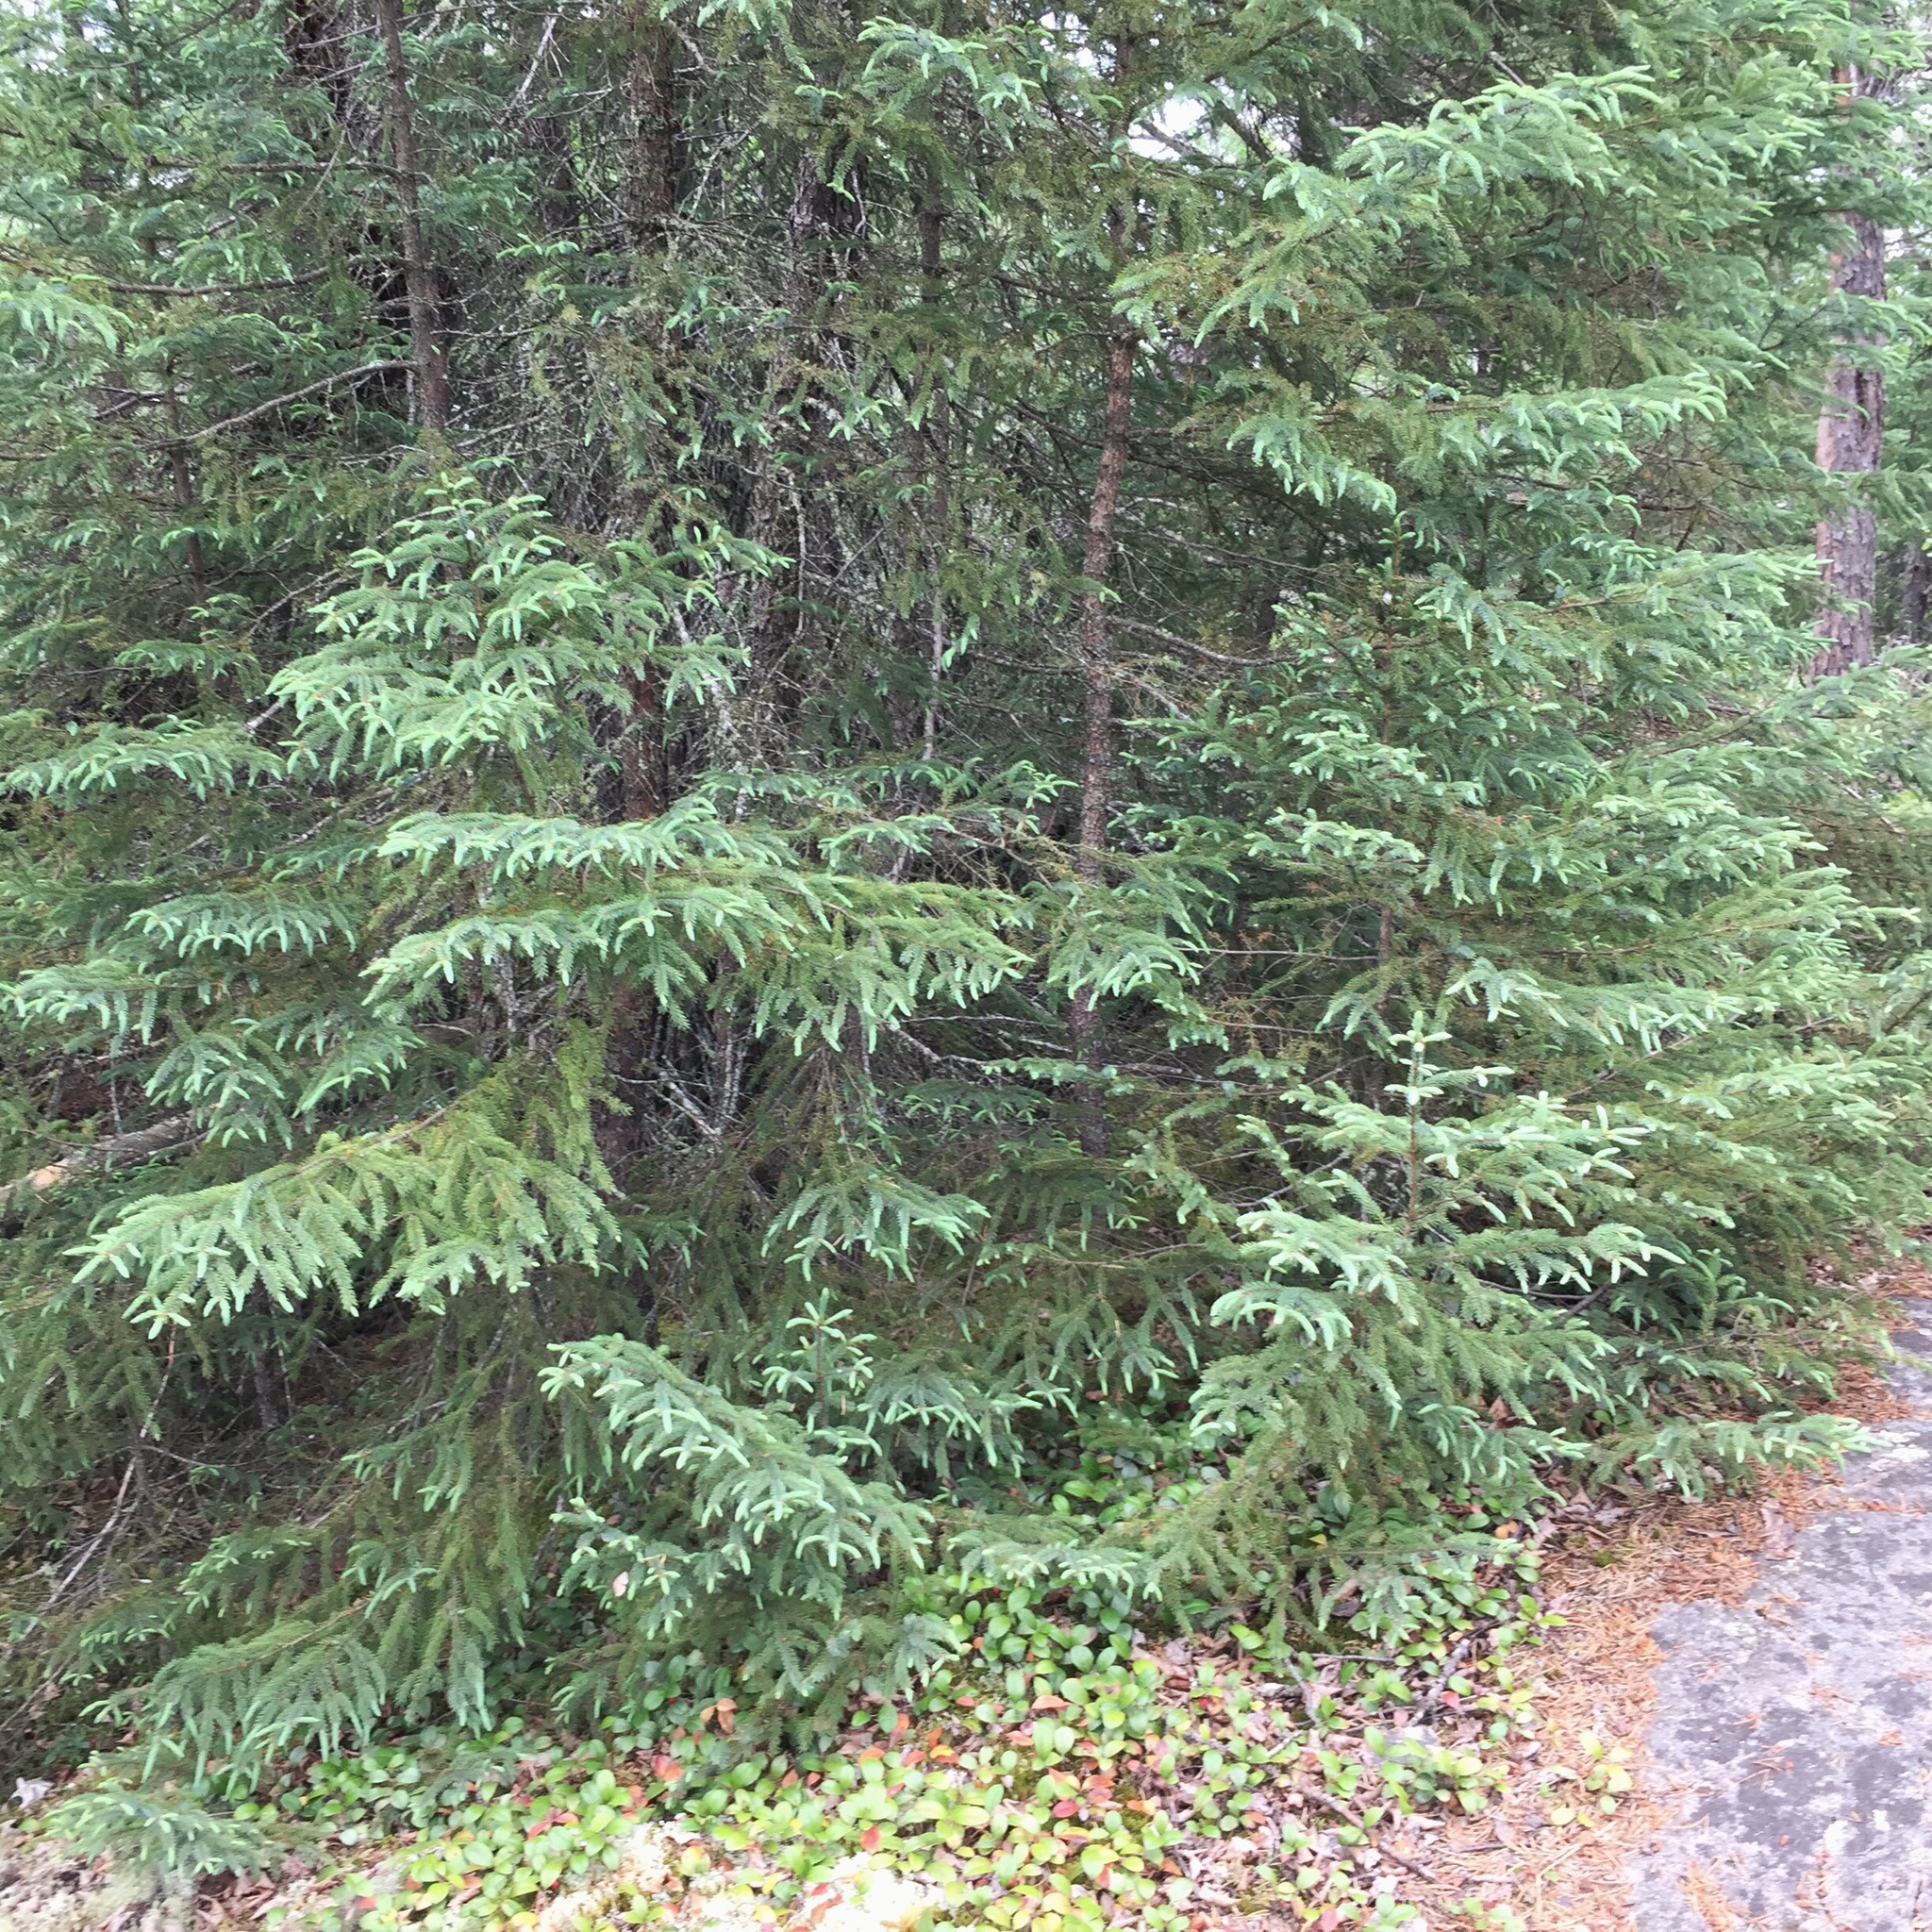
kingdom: Plantae
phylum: Tracheophyta
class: Pinopsida
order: Pinales
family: Pinaceae
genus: Picea
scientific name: Picea mariana
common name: Black spruce
